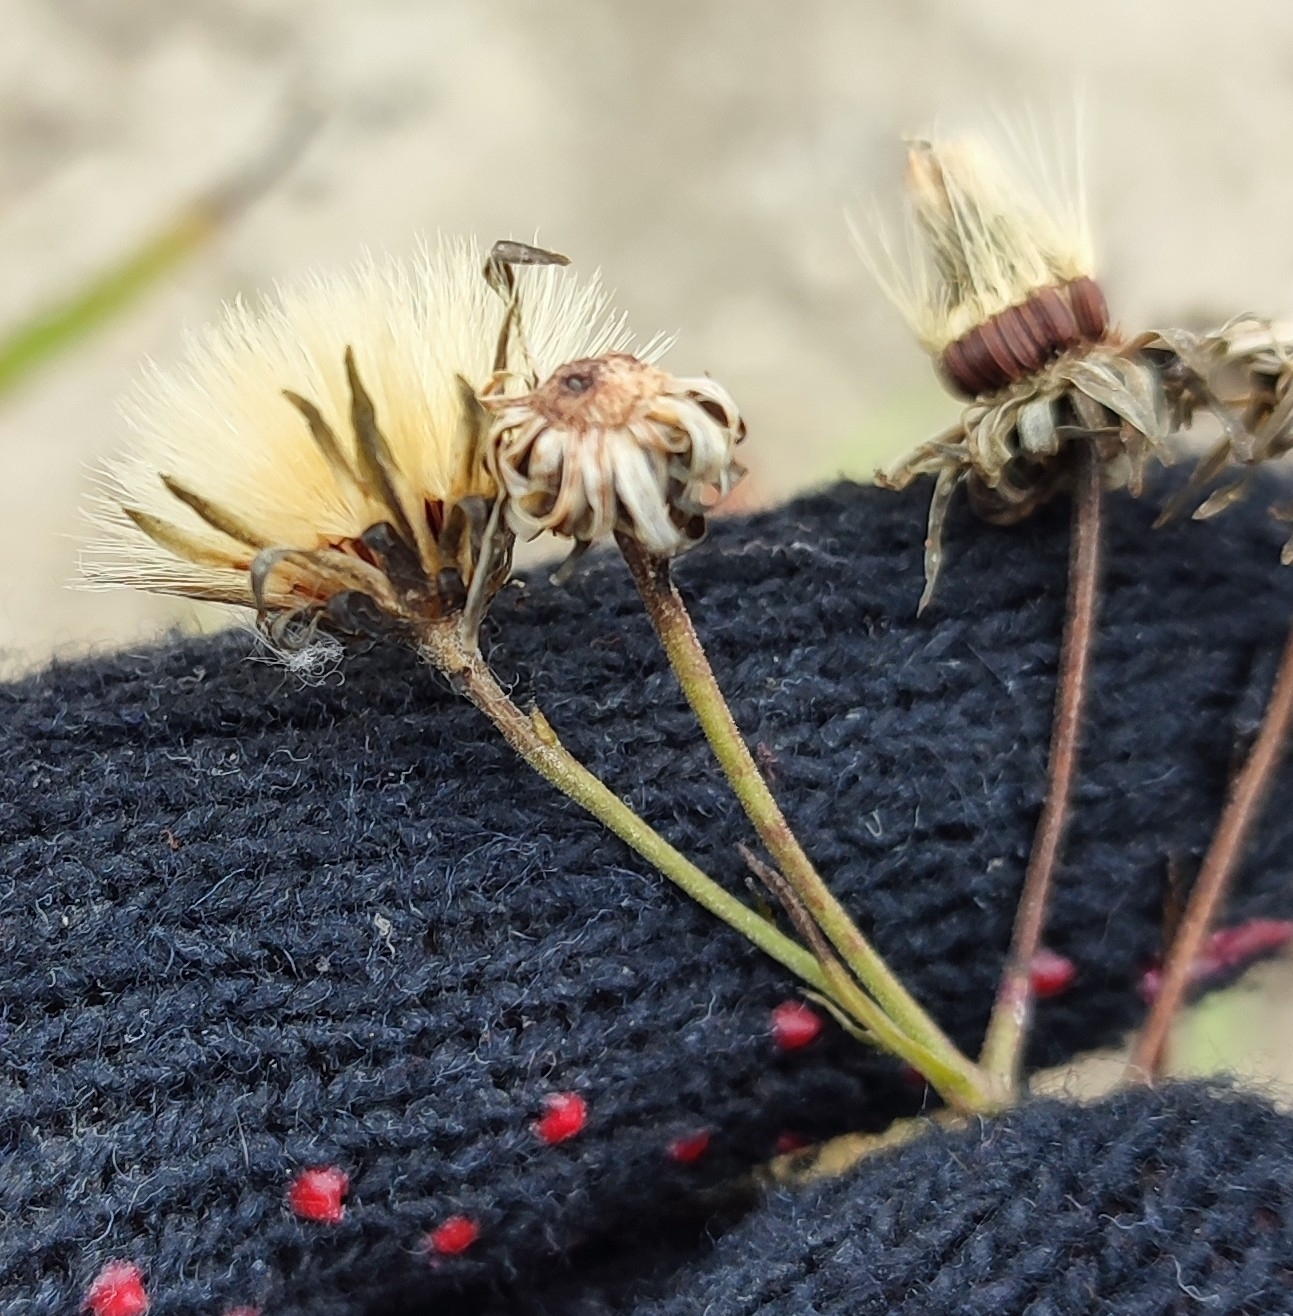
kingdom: Plantae
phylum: Tracheophyta
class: Magnoliopsida
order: Asterales
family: Asteraceae
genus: Hieracium
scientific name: Hieracium umbellatum
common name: Northern hawkweed
